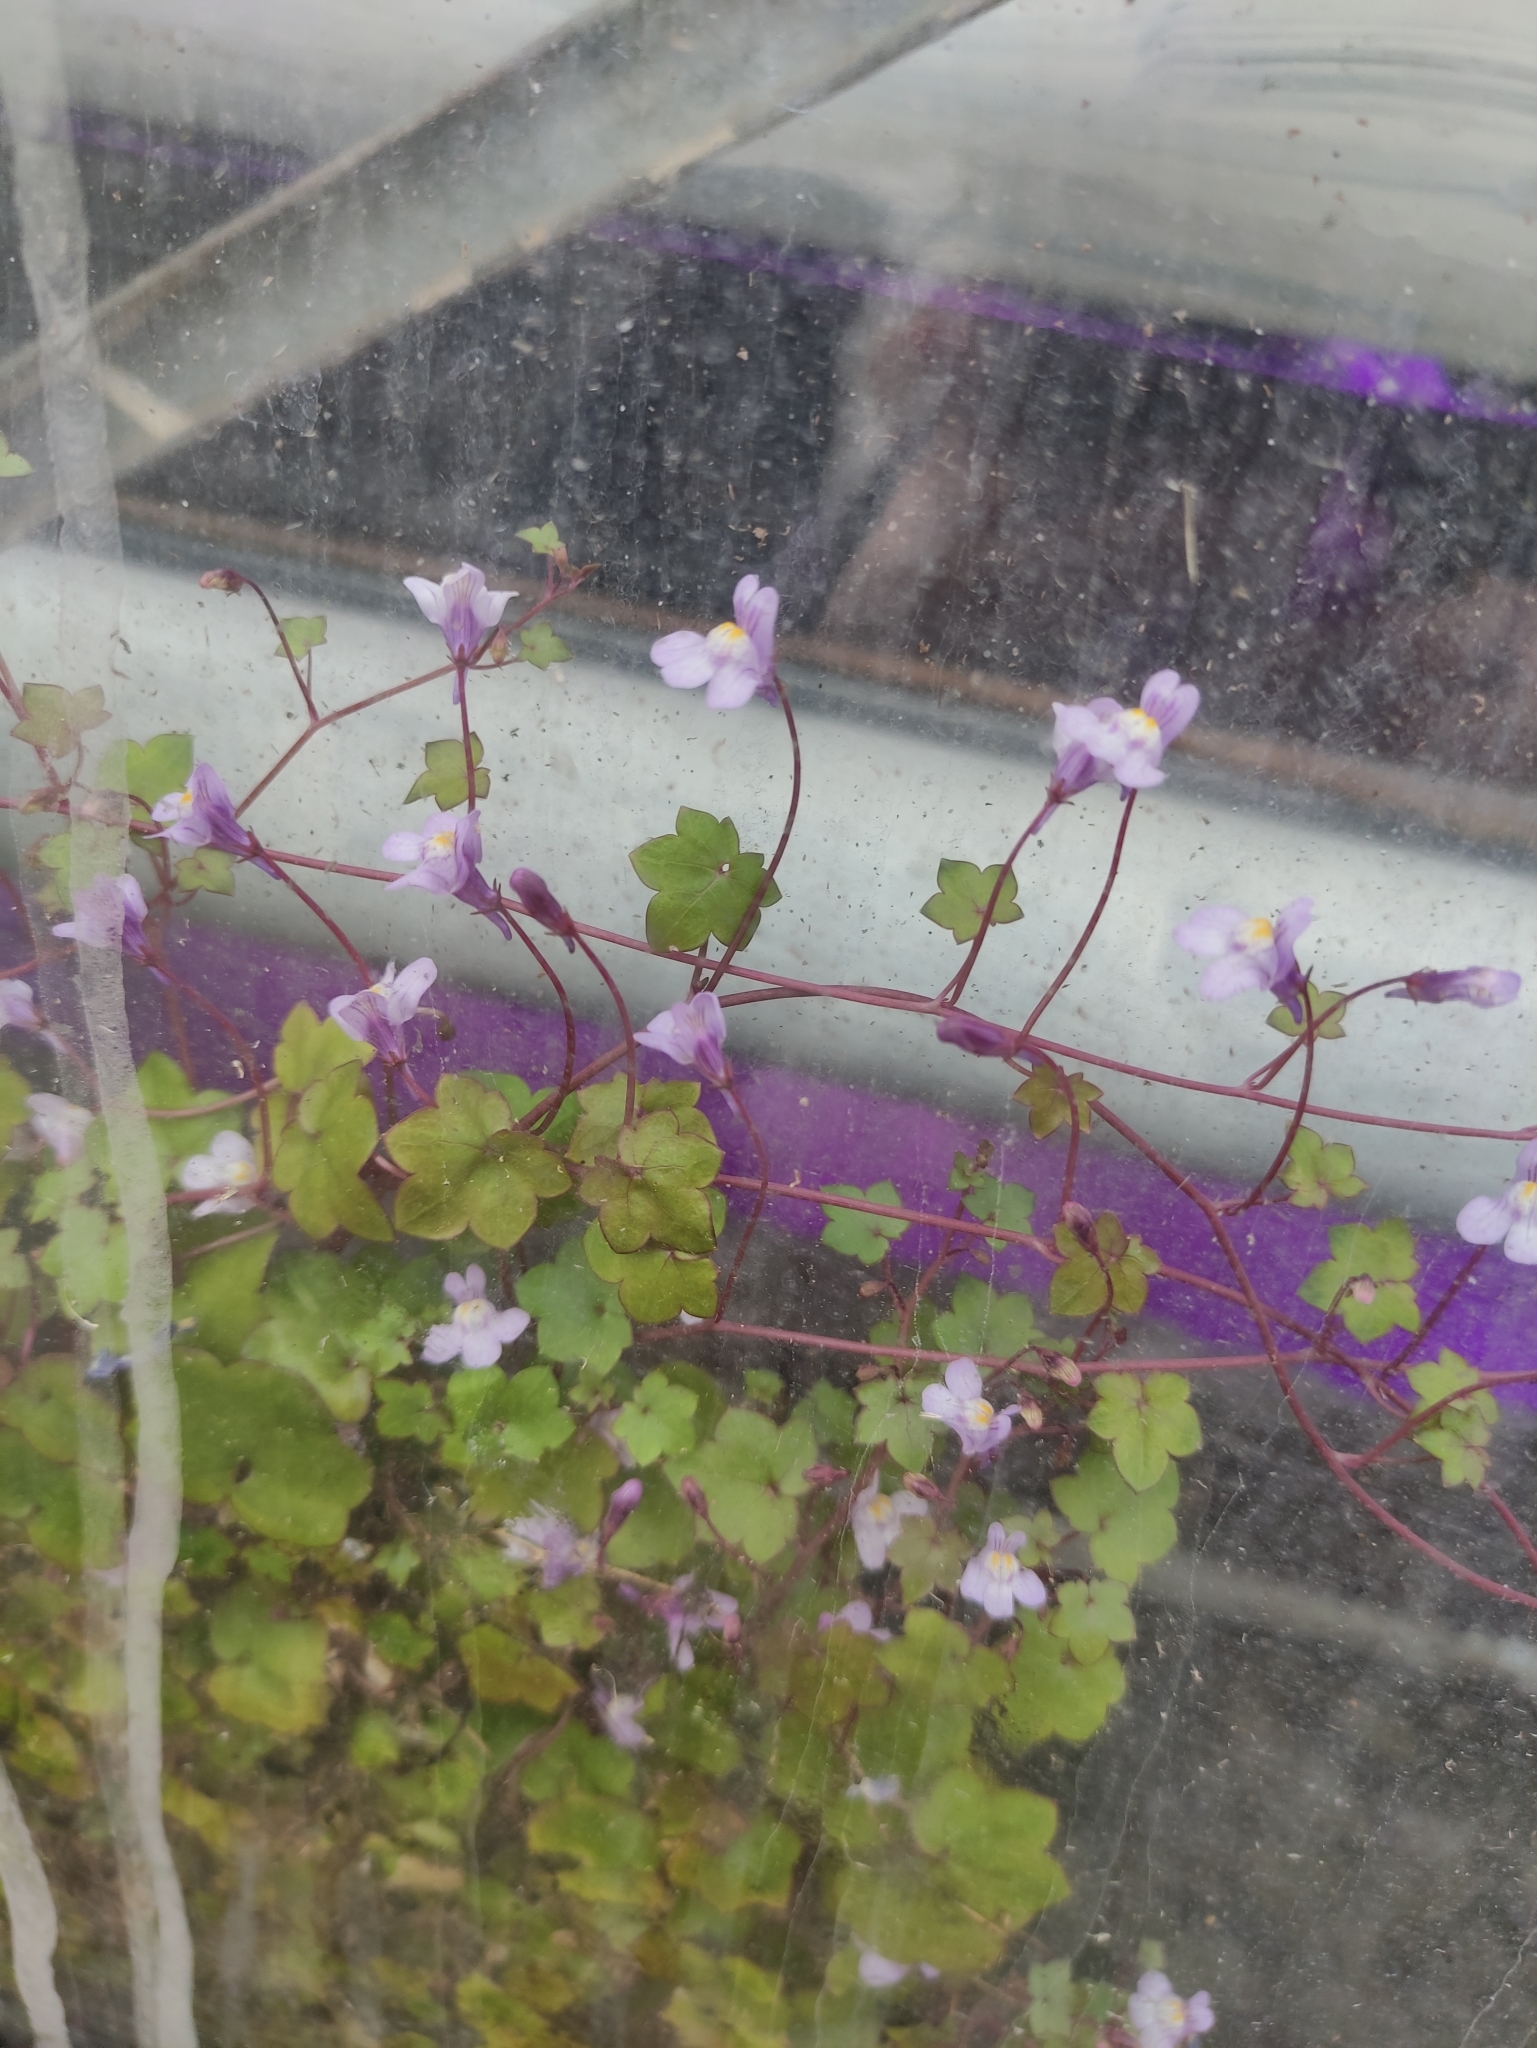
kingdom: Plantae
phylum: Tracheophyta
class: Magnoliopsida
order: Lamiales
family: Plantaginaceae
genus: Cymbalaria
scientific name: Cymbalaria muralis
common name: Ivy-leaved toadflax
